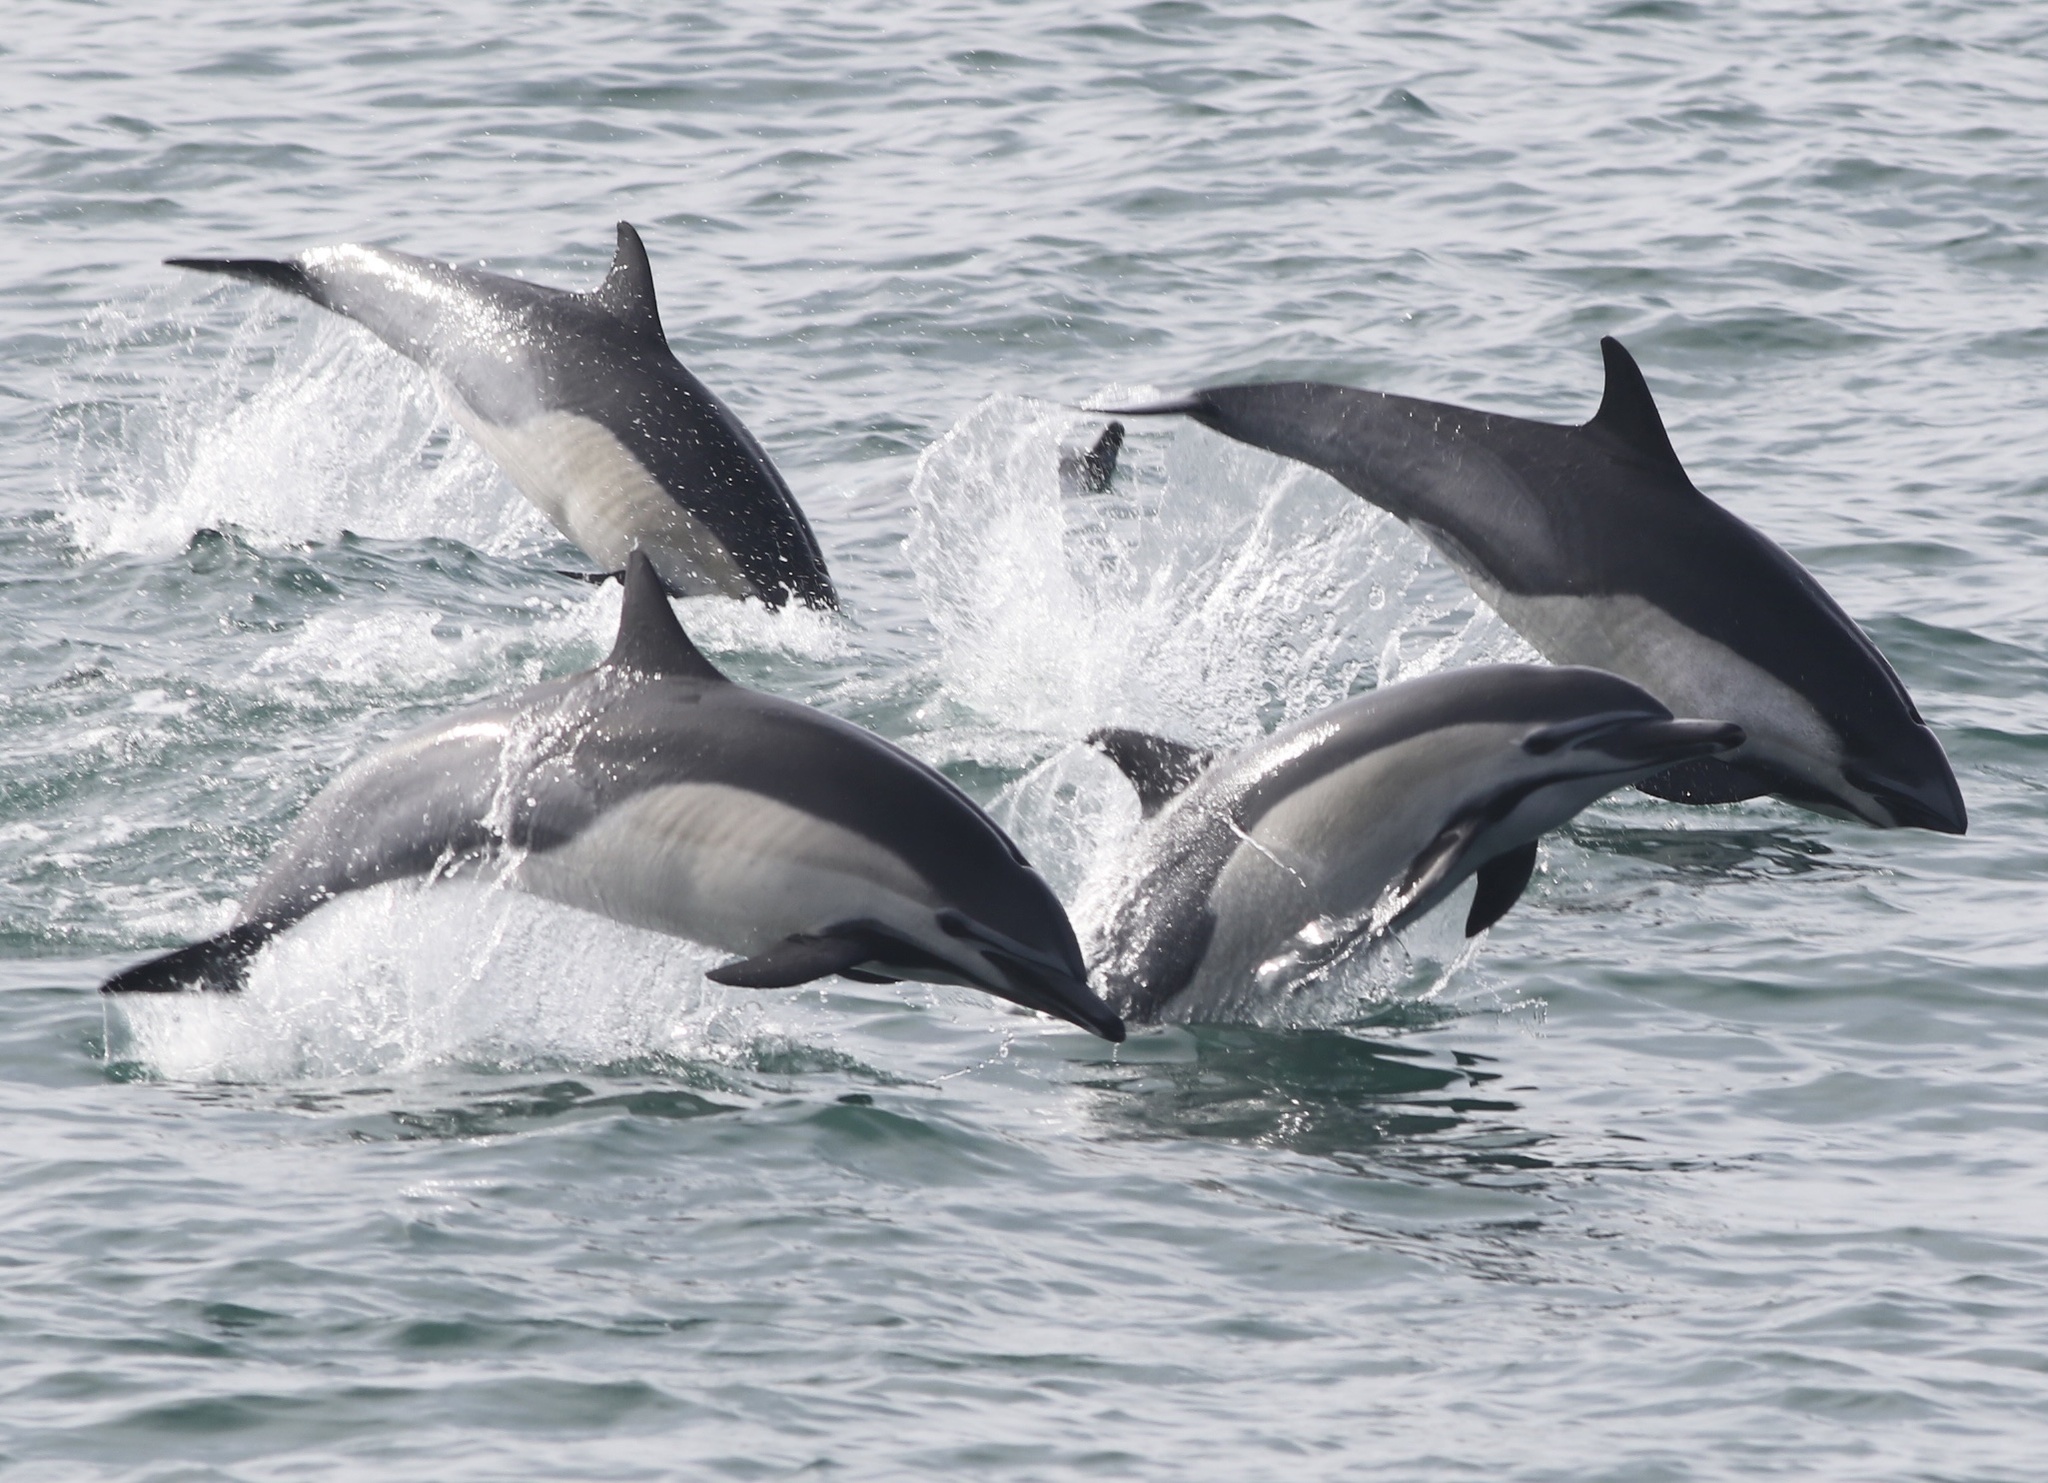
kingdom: Animalia
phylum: Chordata
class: Mammalia
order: Cetacea
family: Delphinidae
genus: Delphinus
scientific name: Delphinus delphis
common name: Common dolphin
